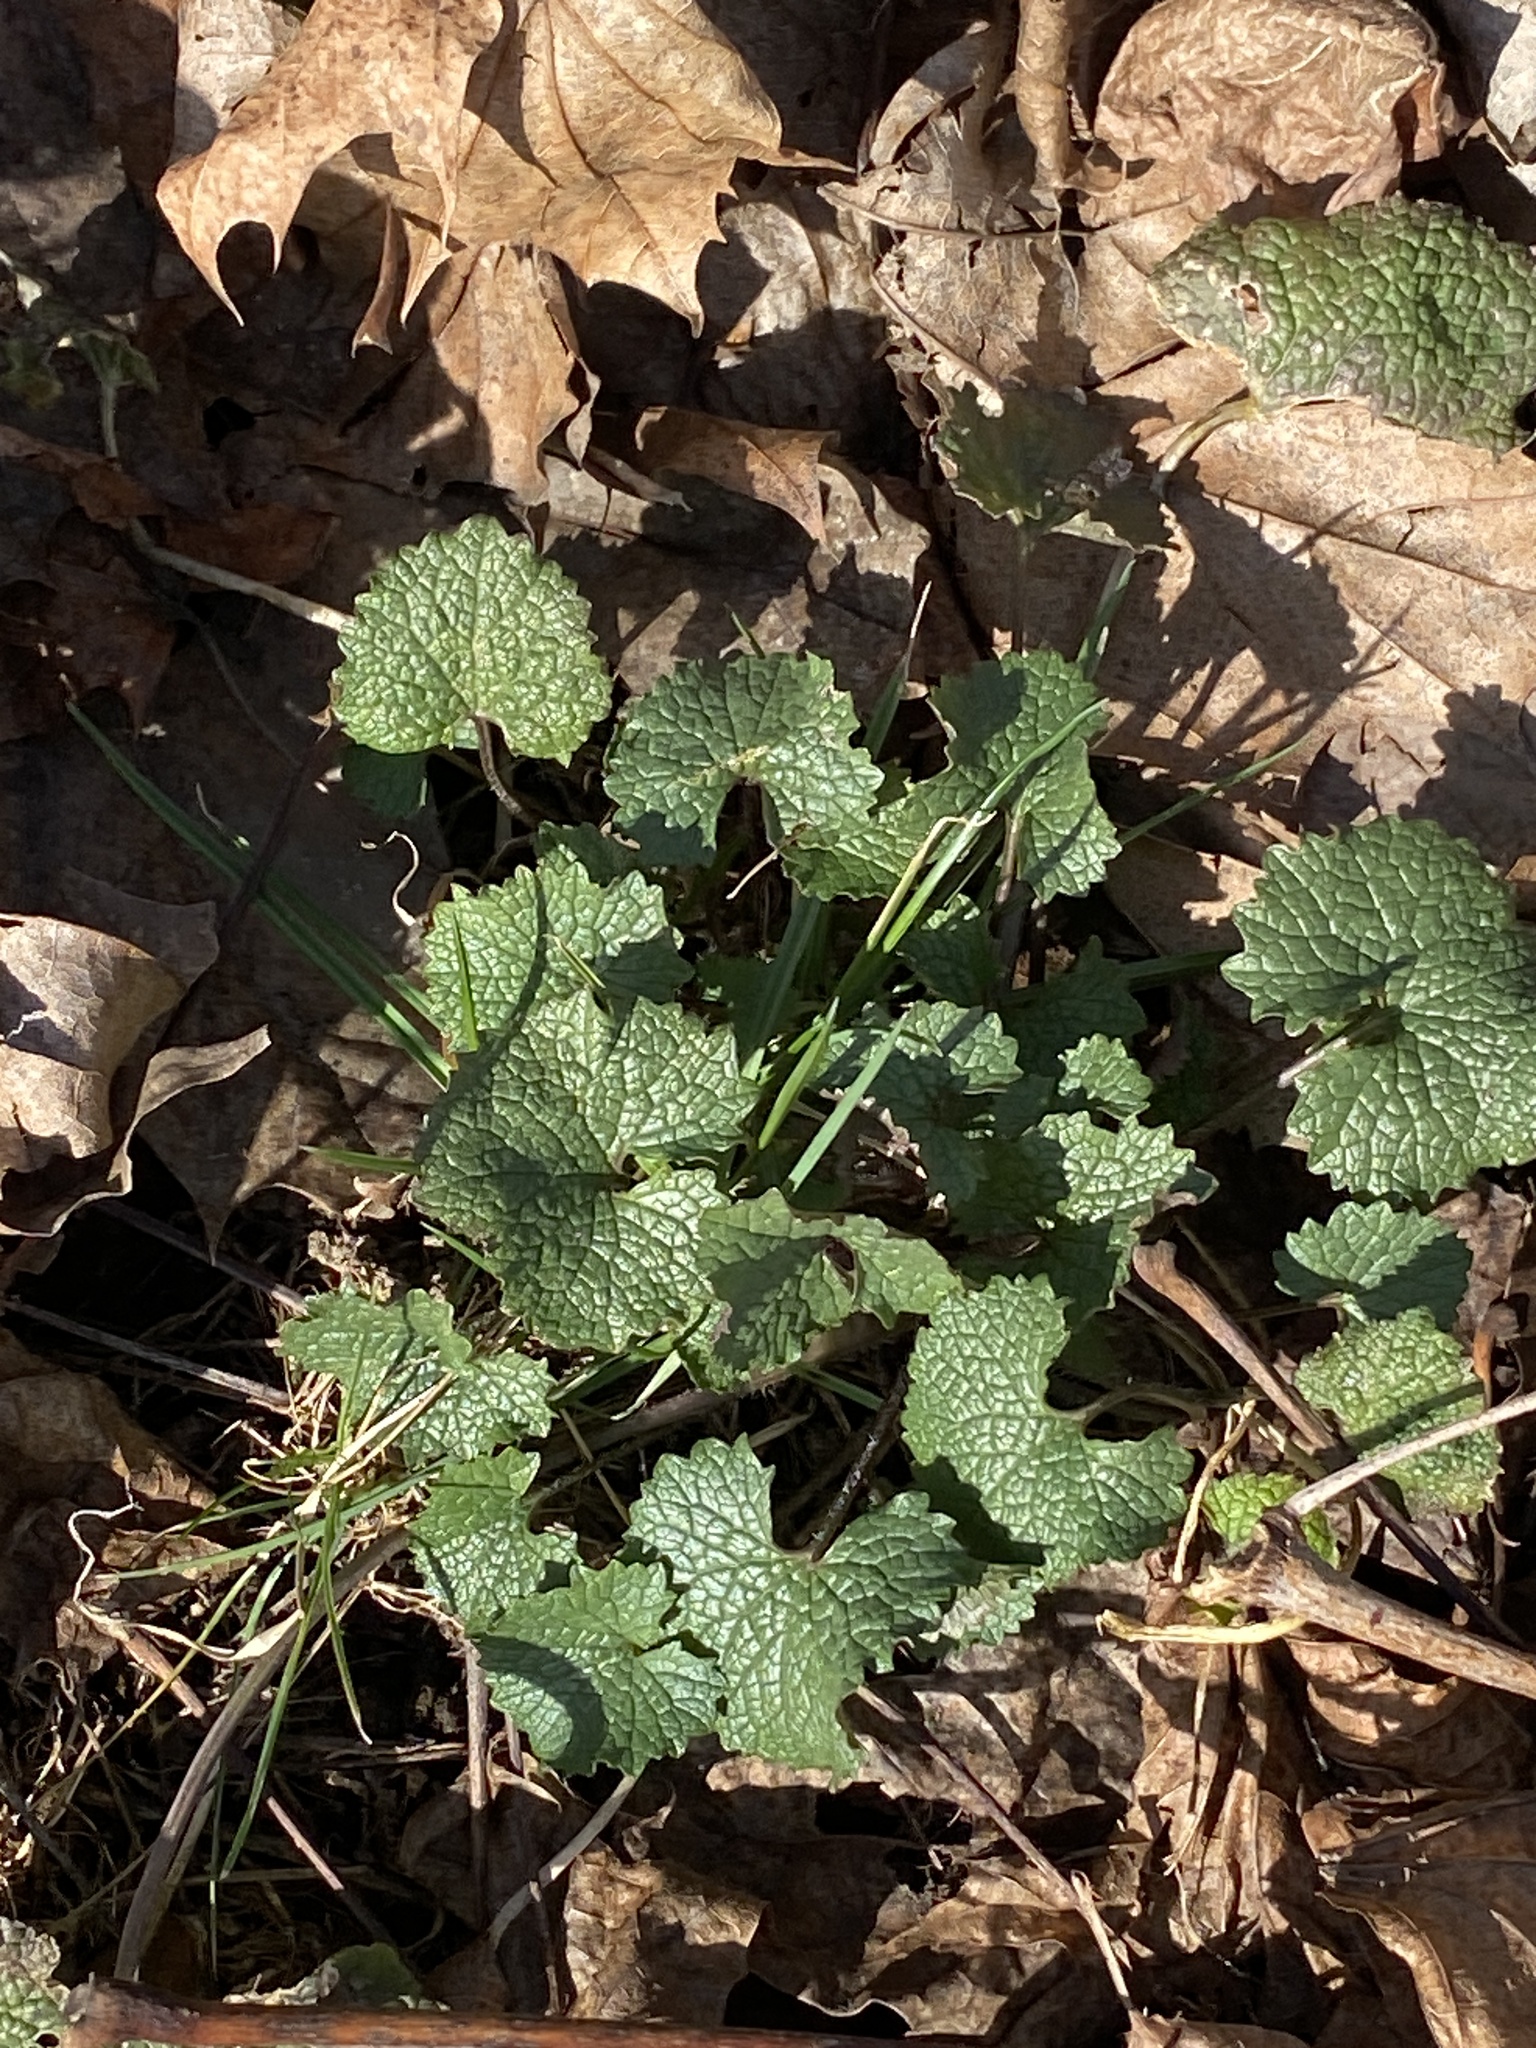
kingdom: Plantae
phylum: Tracheophyta
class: Magnoliopsida
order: Brassicales
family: Brassicaceae
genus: Alliaria
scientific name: Alliaria petiolata
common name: Garlic mustard
